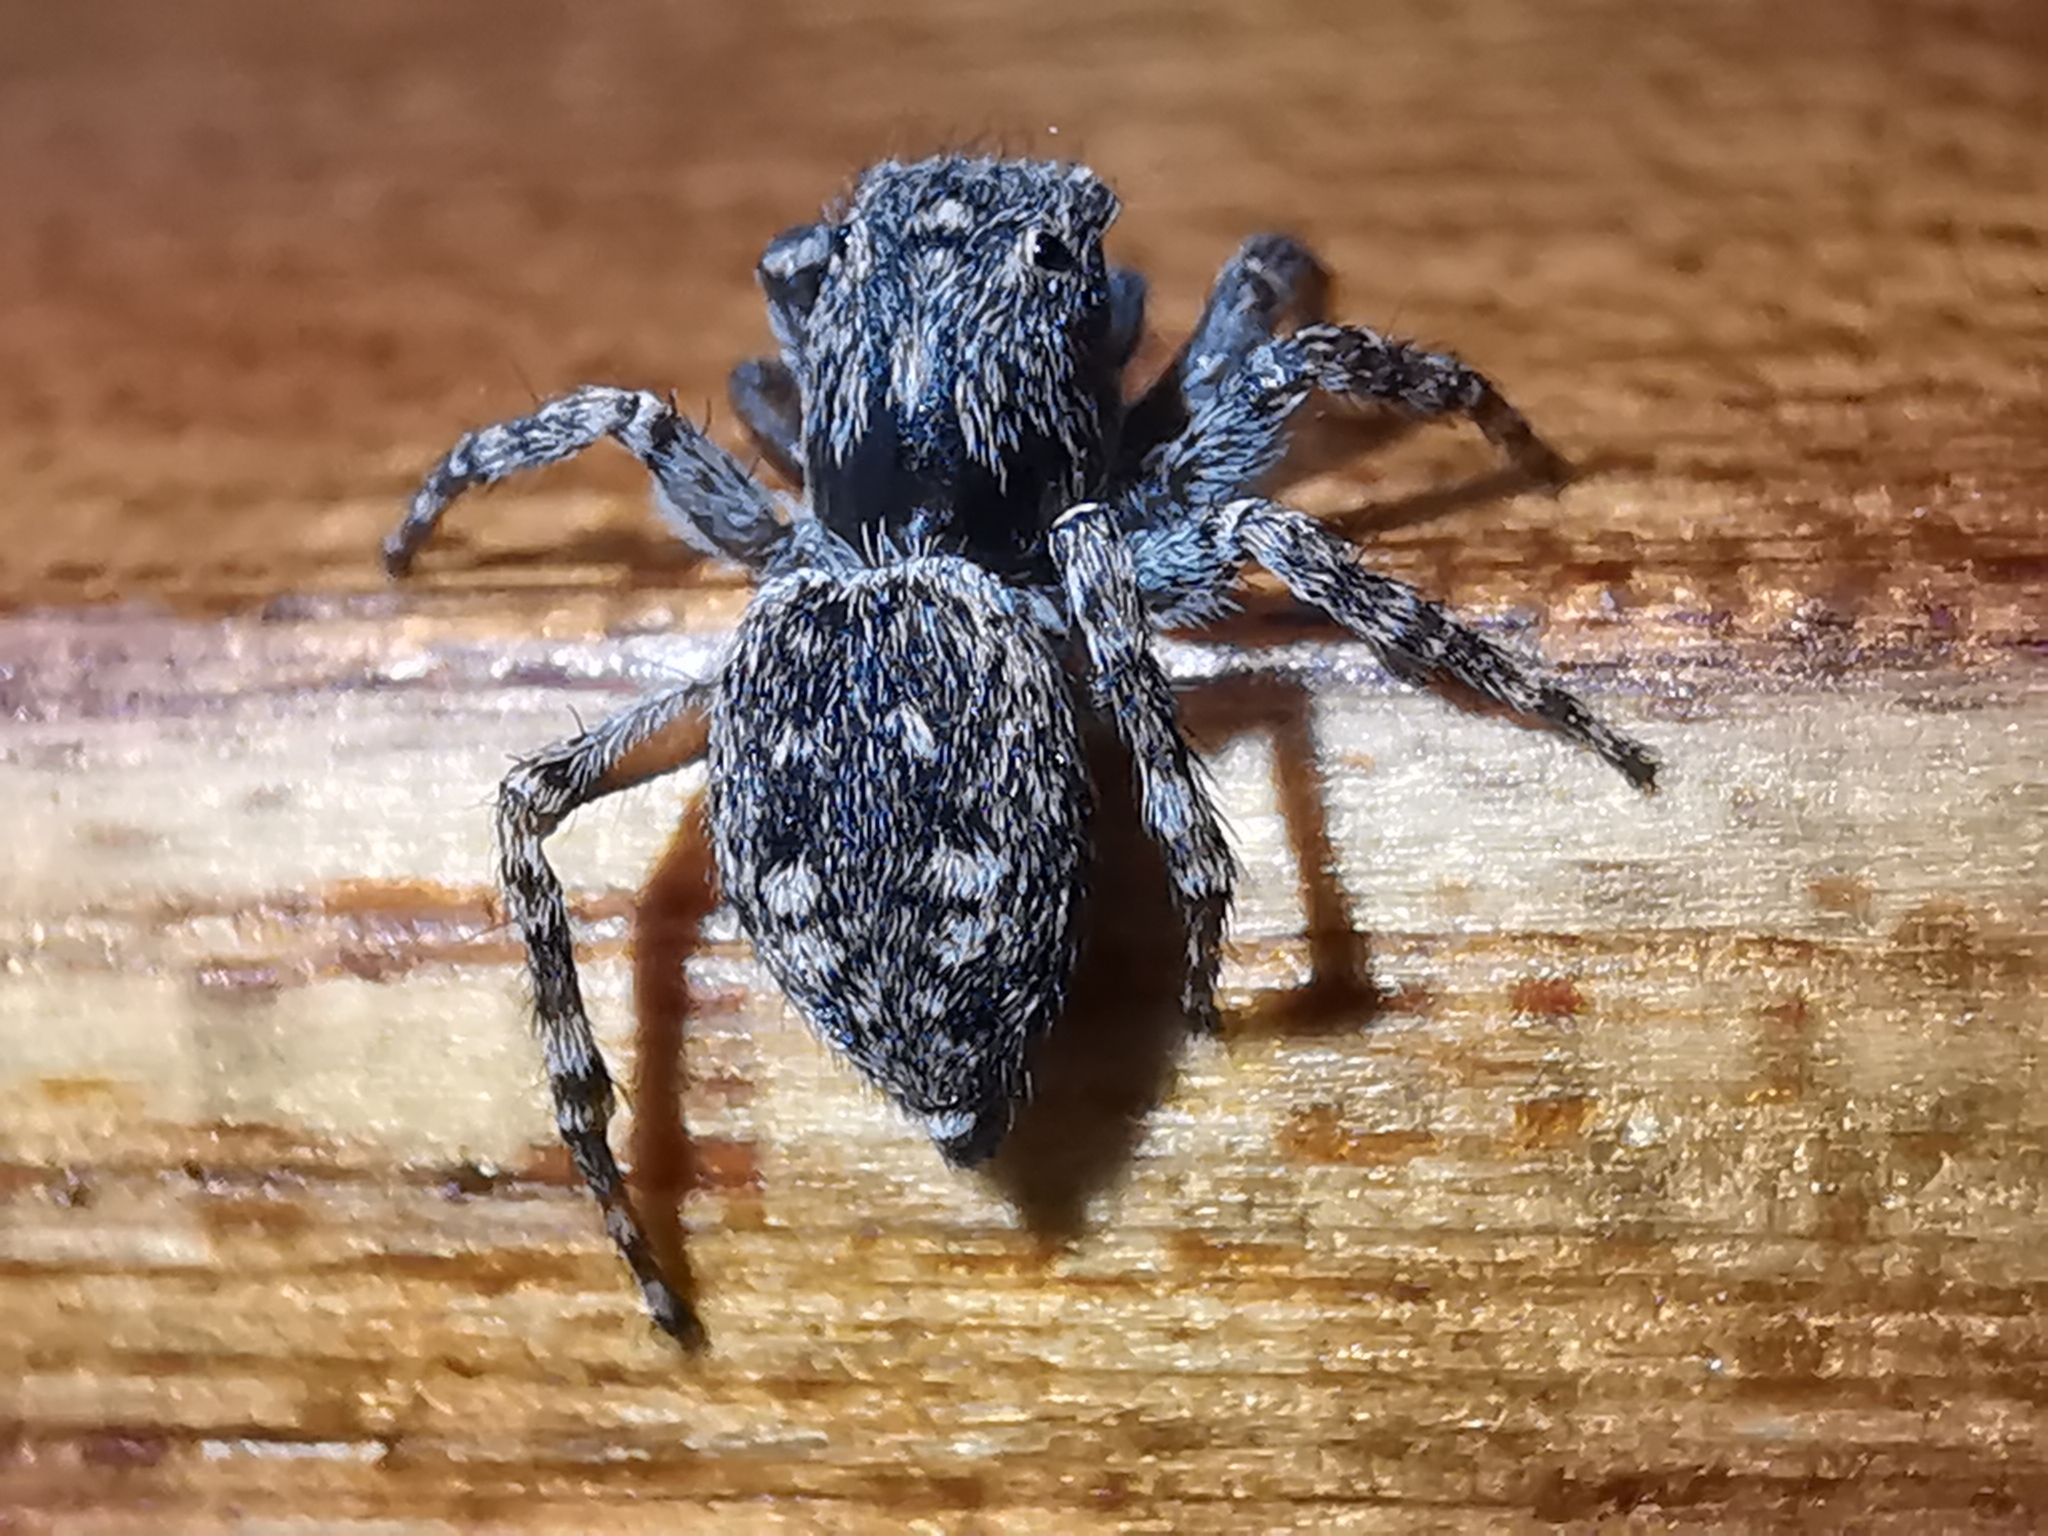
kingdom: Animalia
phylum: Arthropoda
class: Arachnida
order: Araneae
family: Salticidae
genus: Attulus
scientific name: Attulus pubescens
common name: Jumping spider
